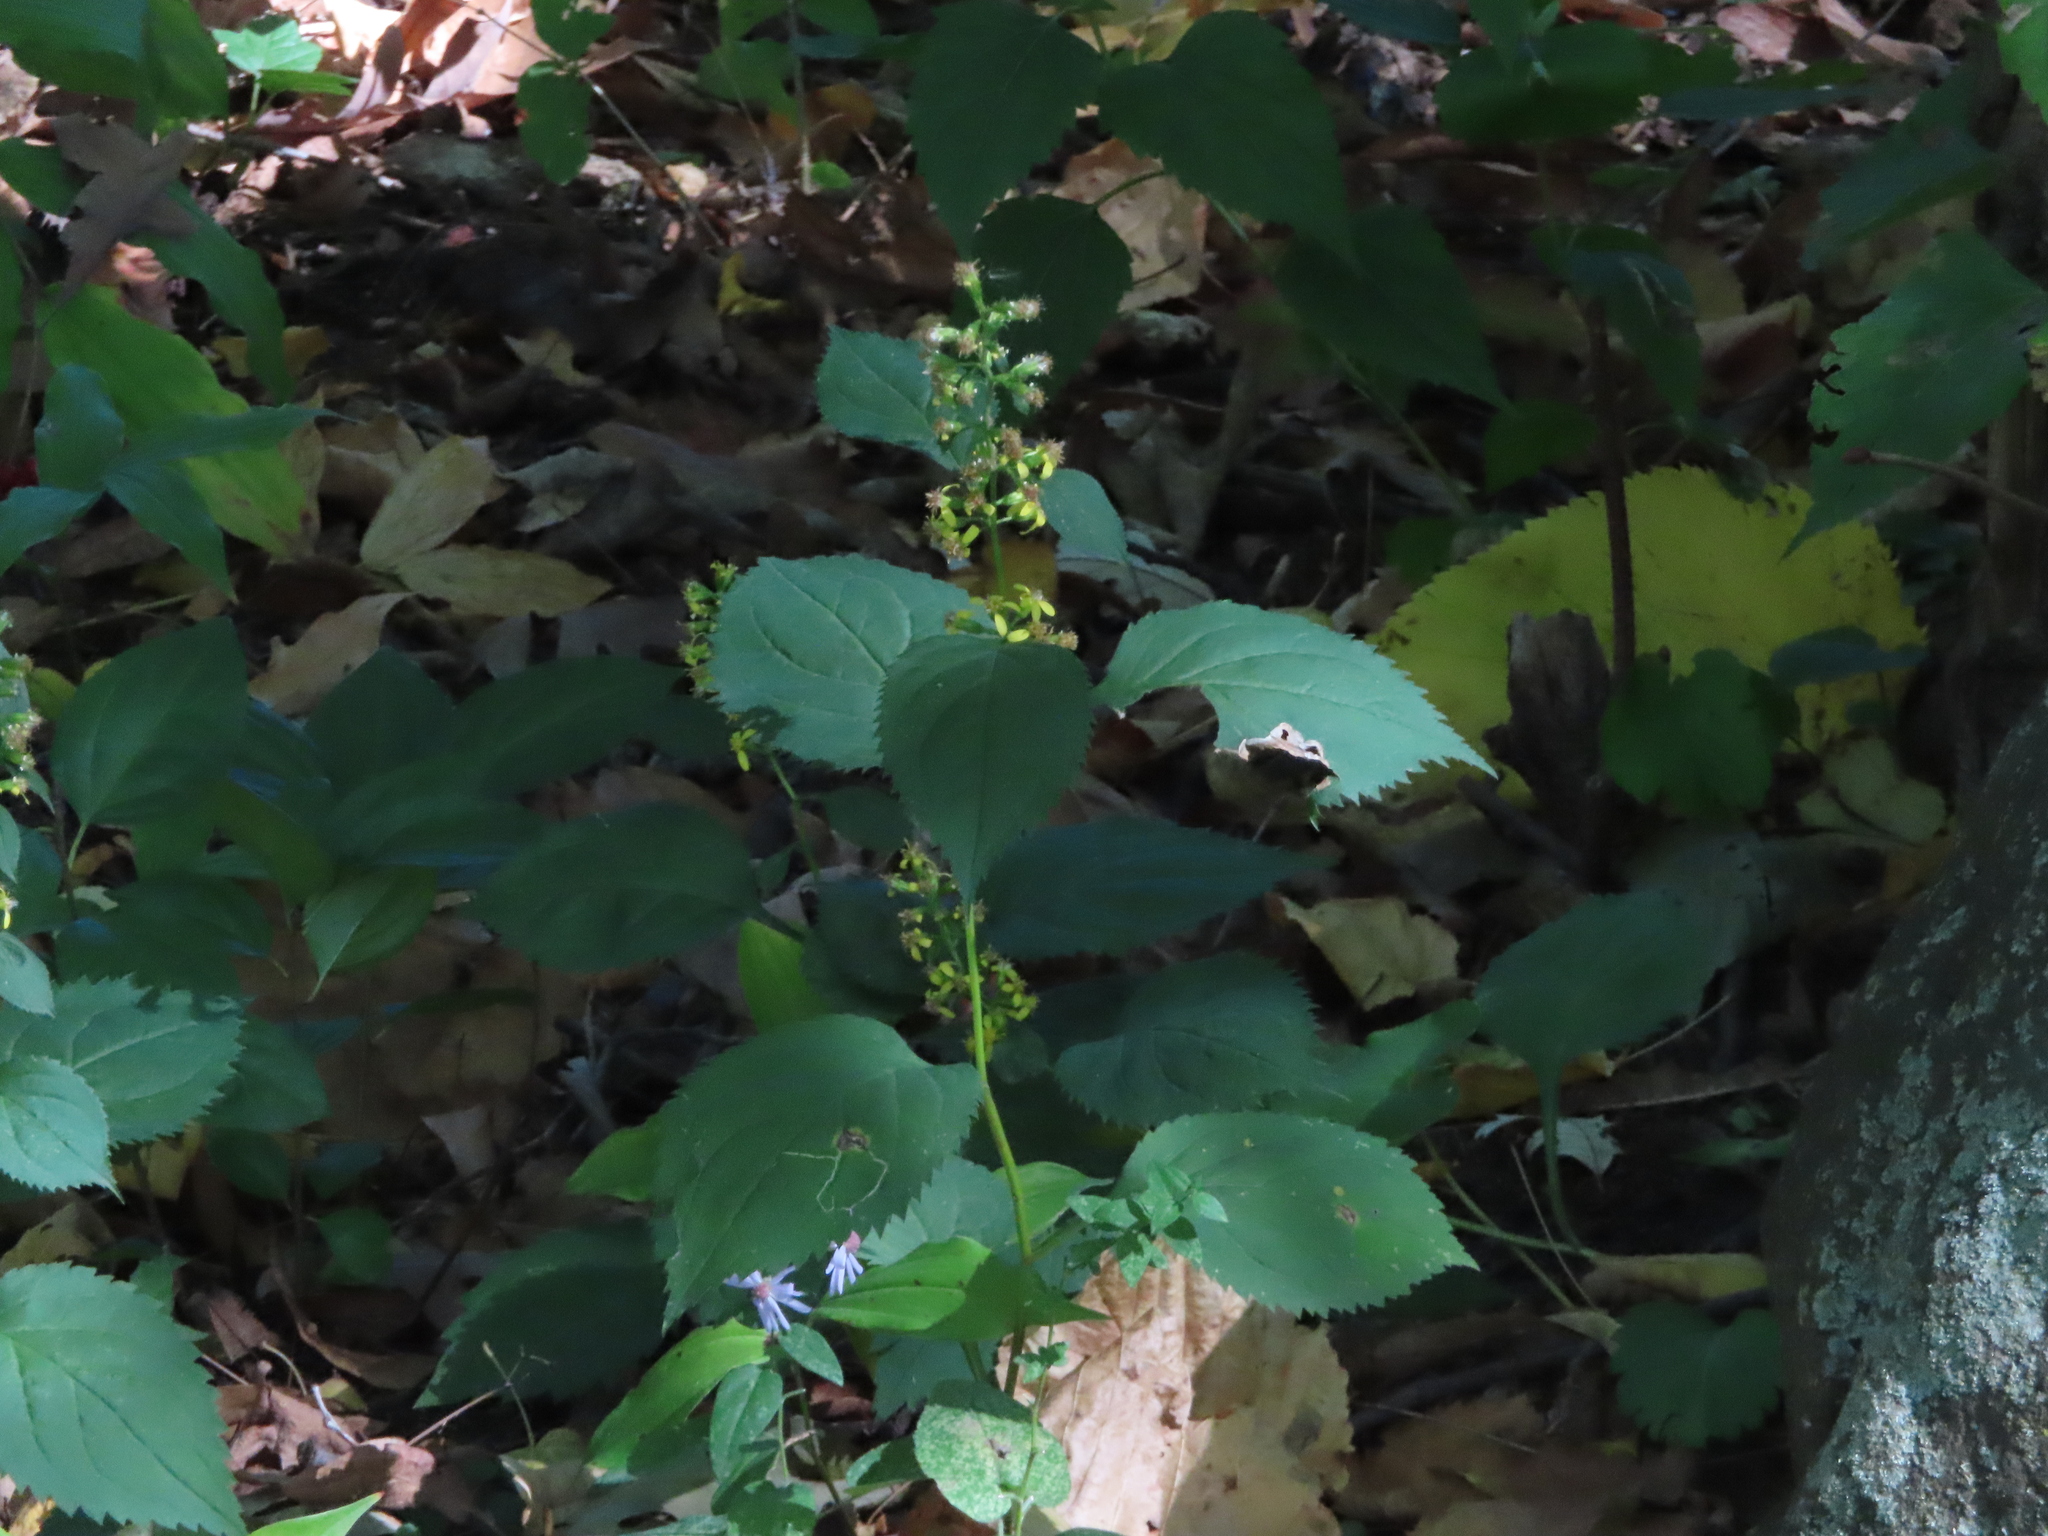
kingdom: Plantae
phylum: Tracheophyta
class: Magnoliopsida
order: Asterales
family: Asteraceae
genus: Solidago
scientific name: Solidago flexicaulis
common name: Zig-zag goldenrod
